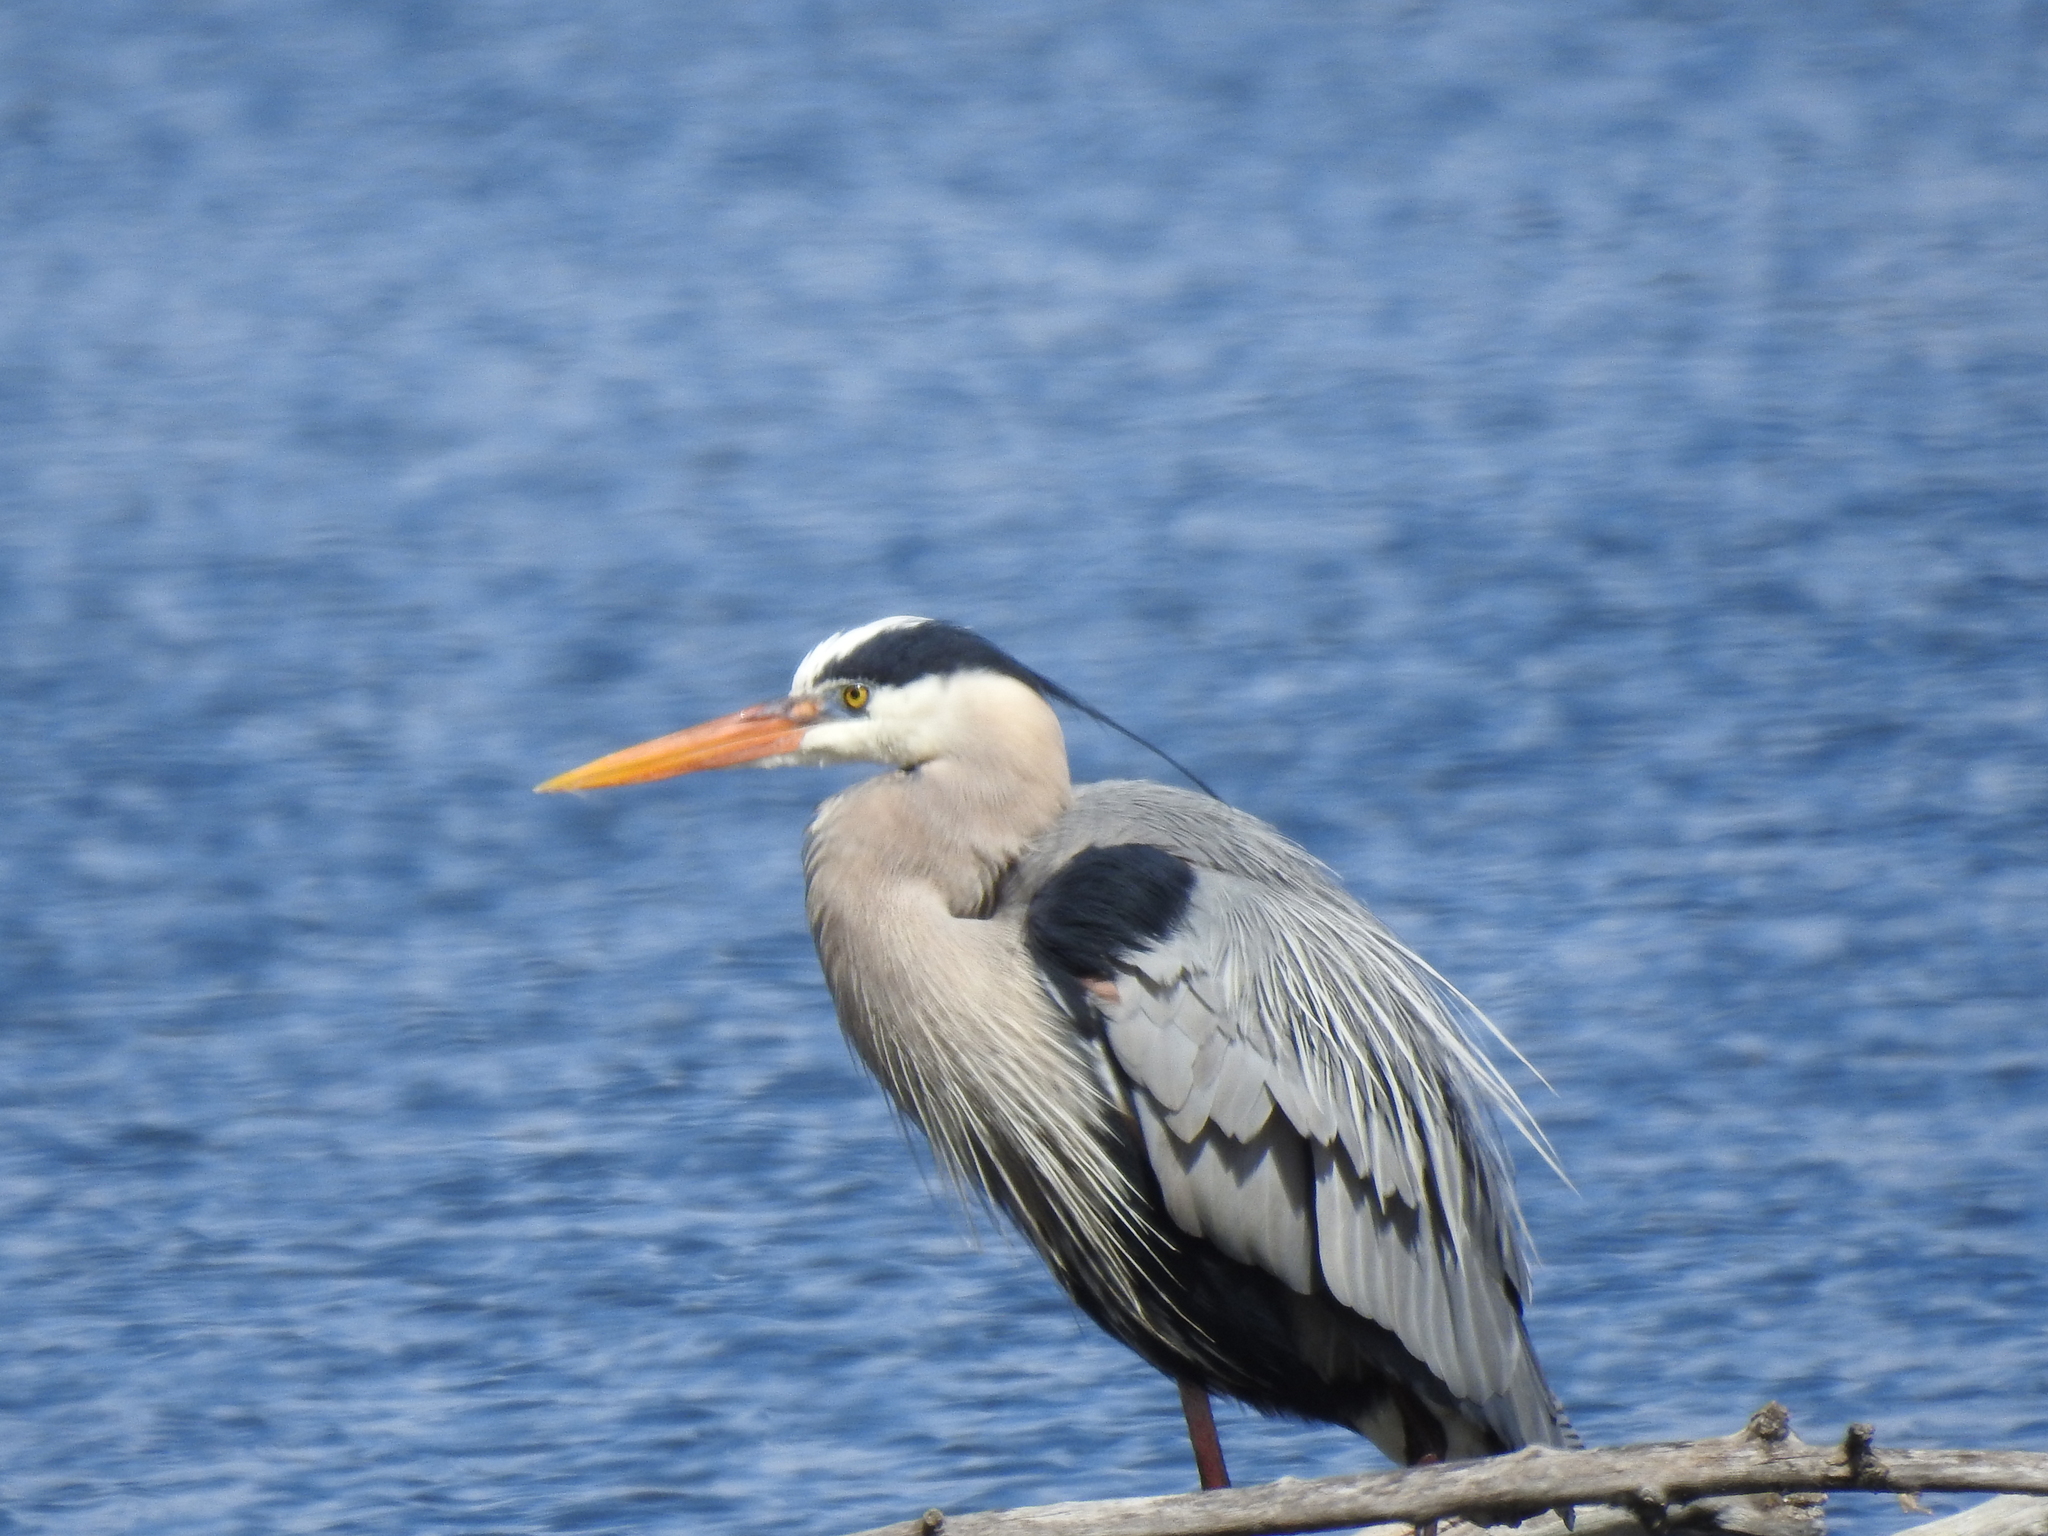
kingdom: Animalia
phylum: Chordata
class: Aves
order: Pelecaniformes
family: Ardeidae
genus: Ardea
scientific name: Ardea herodias
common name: Great blue heron
